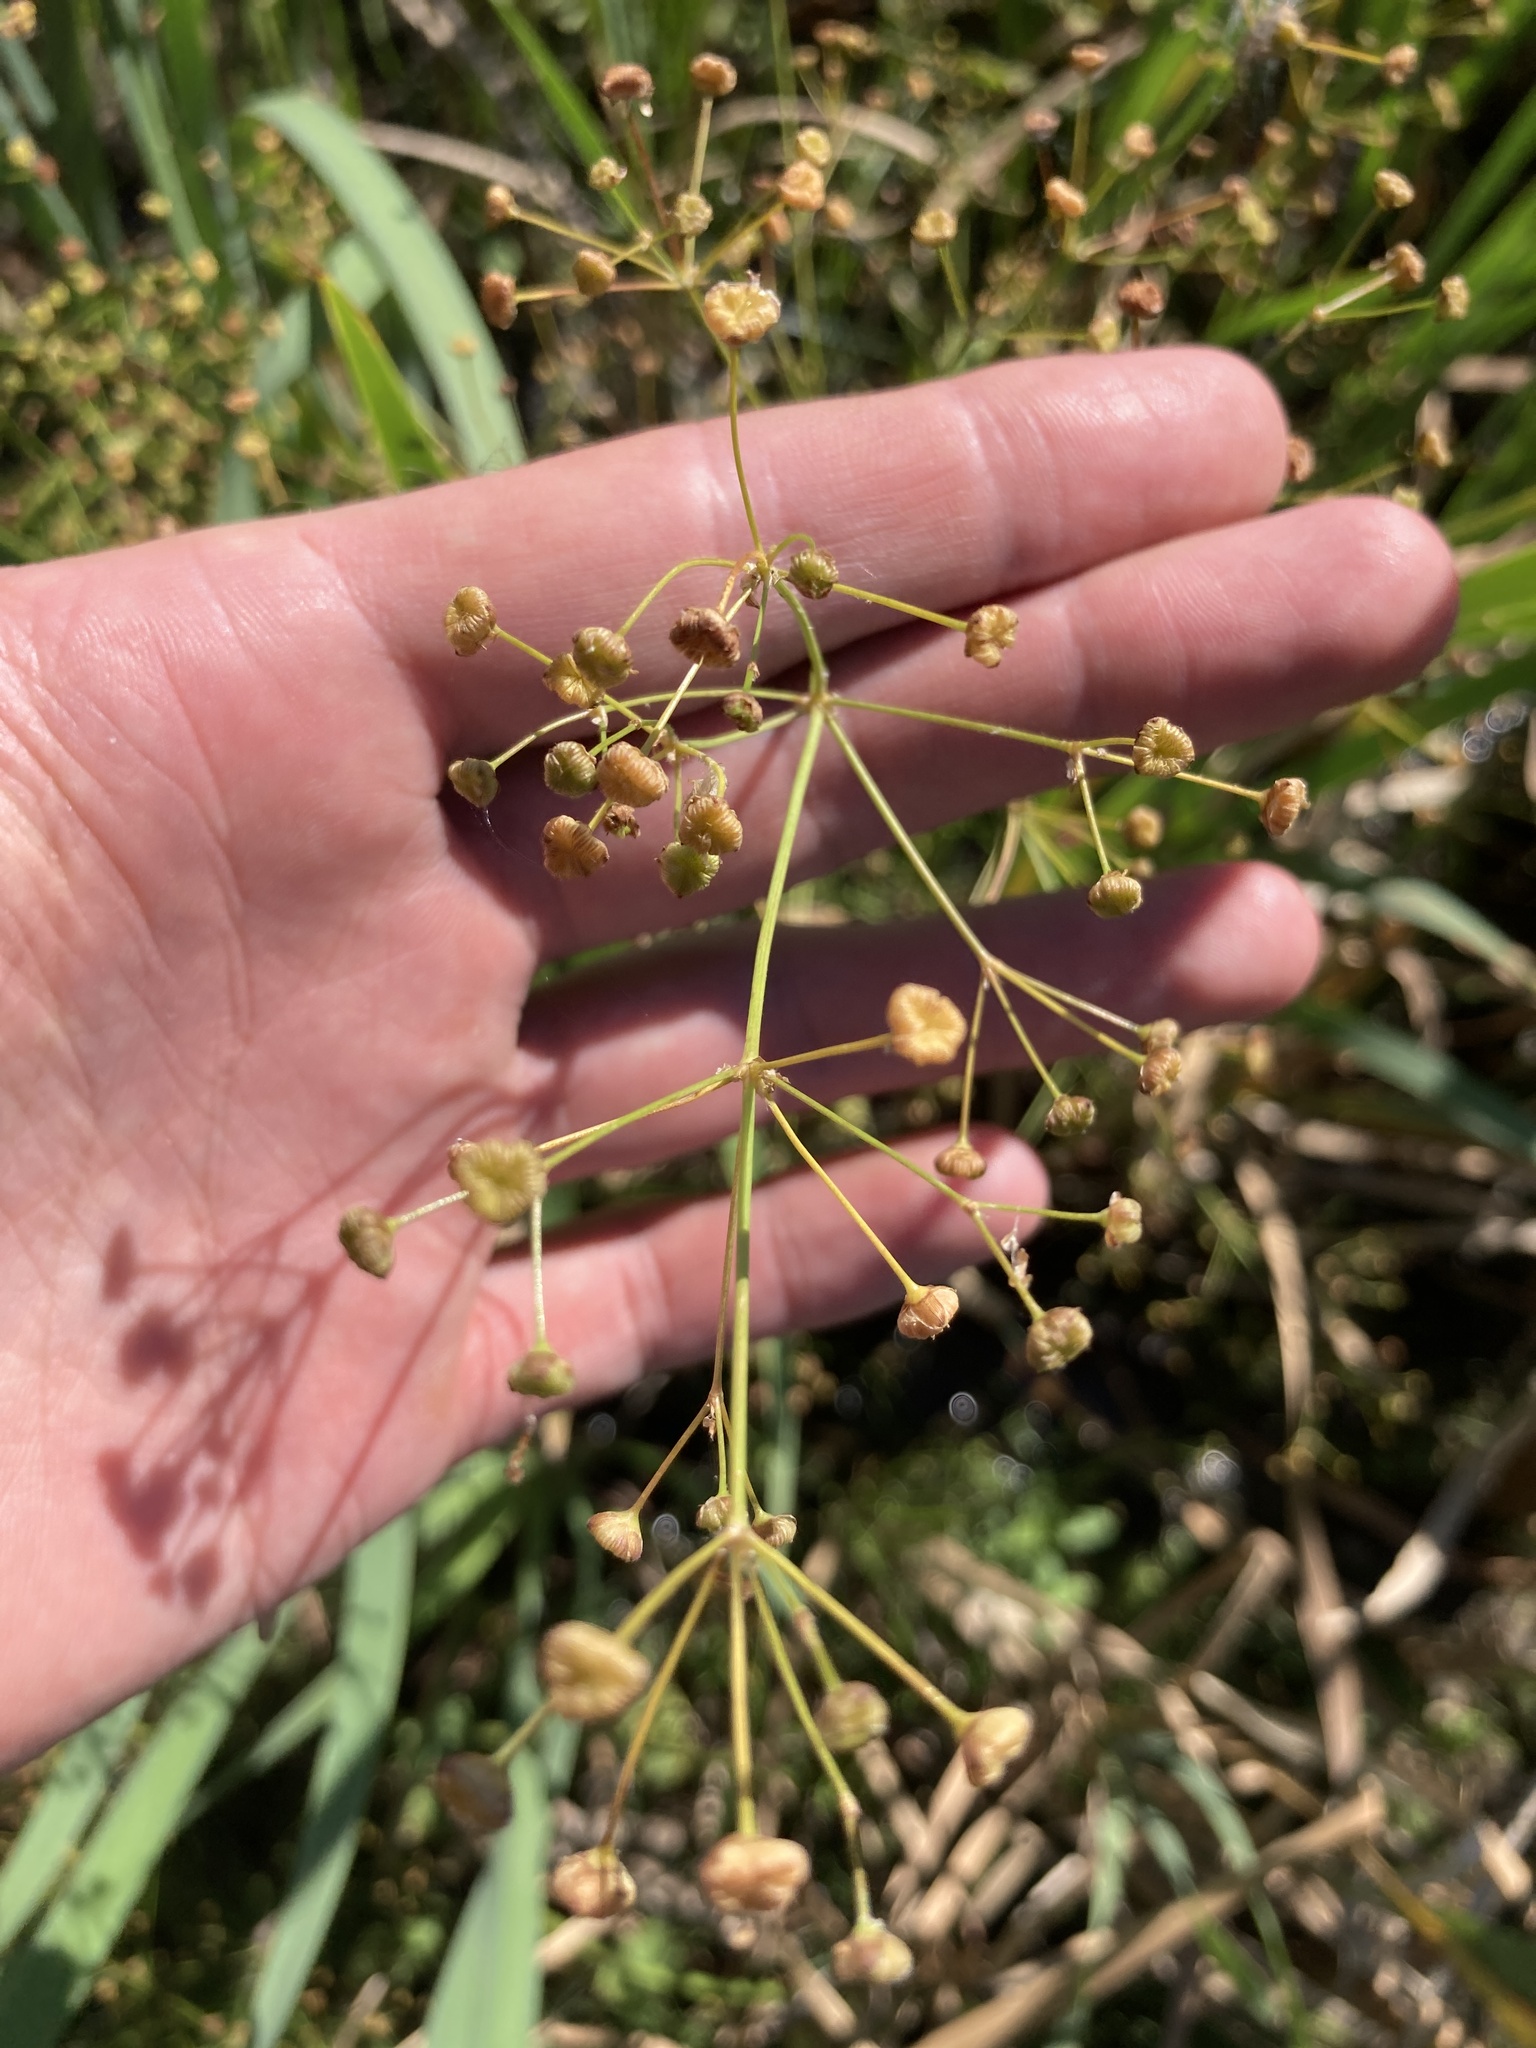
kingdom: Plantae
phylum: Tracheophyta
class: Liliopsida
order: Alismatales
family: Alismataceae
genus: Alisma
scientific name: Alisma plantago-aquatica
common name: Water-plantain
